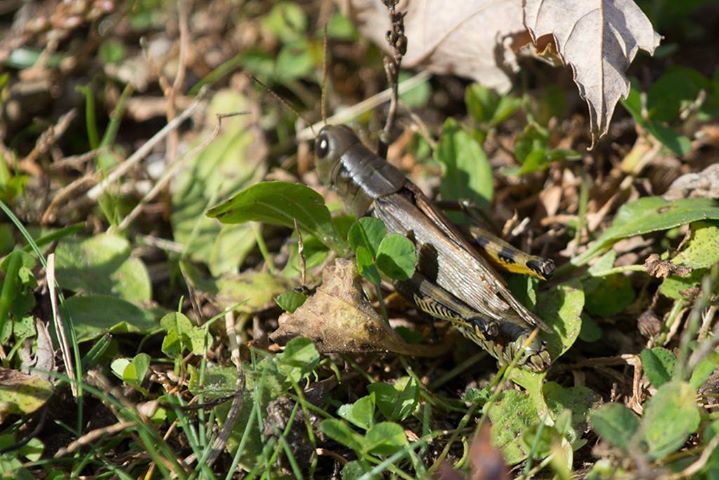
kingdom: Animalia
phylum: Arthropoda
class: Insecta
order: Orthoptera
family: Acrididae
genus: Melanoplus
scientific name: Melanoplus differentialis
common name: Differential grasshopper
